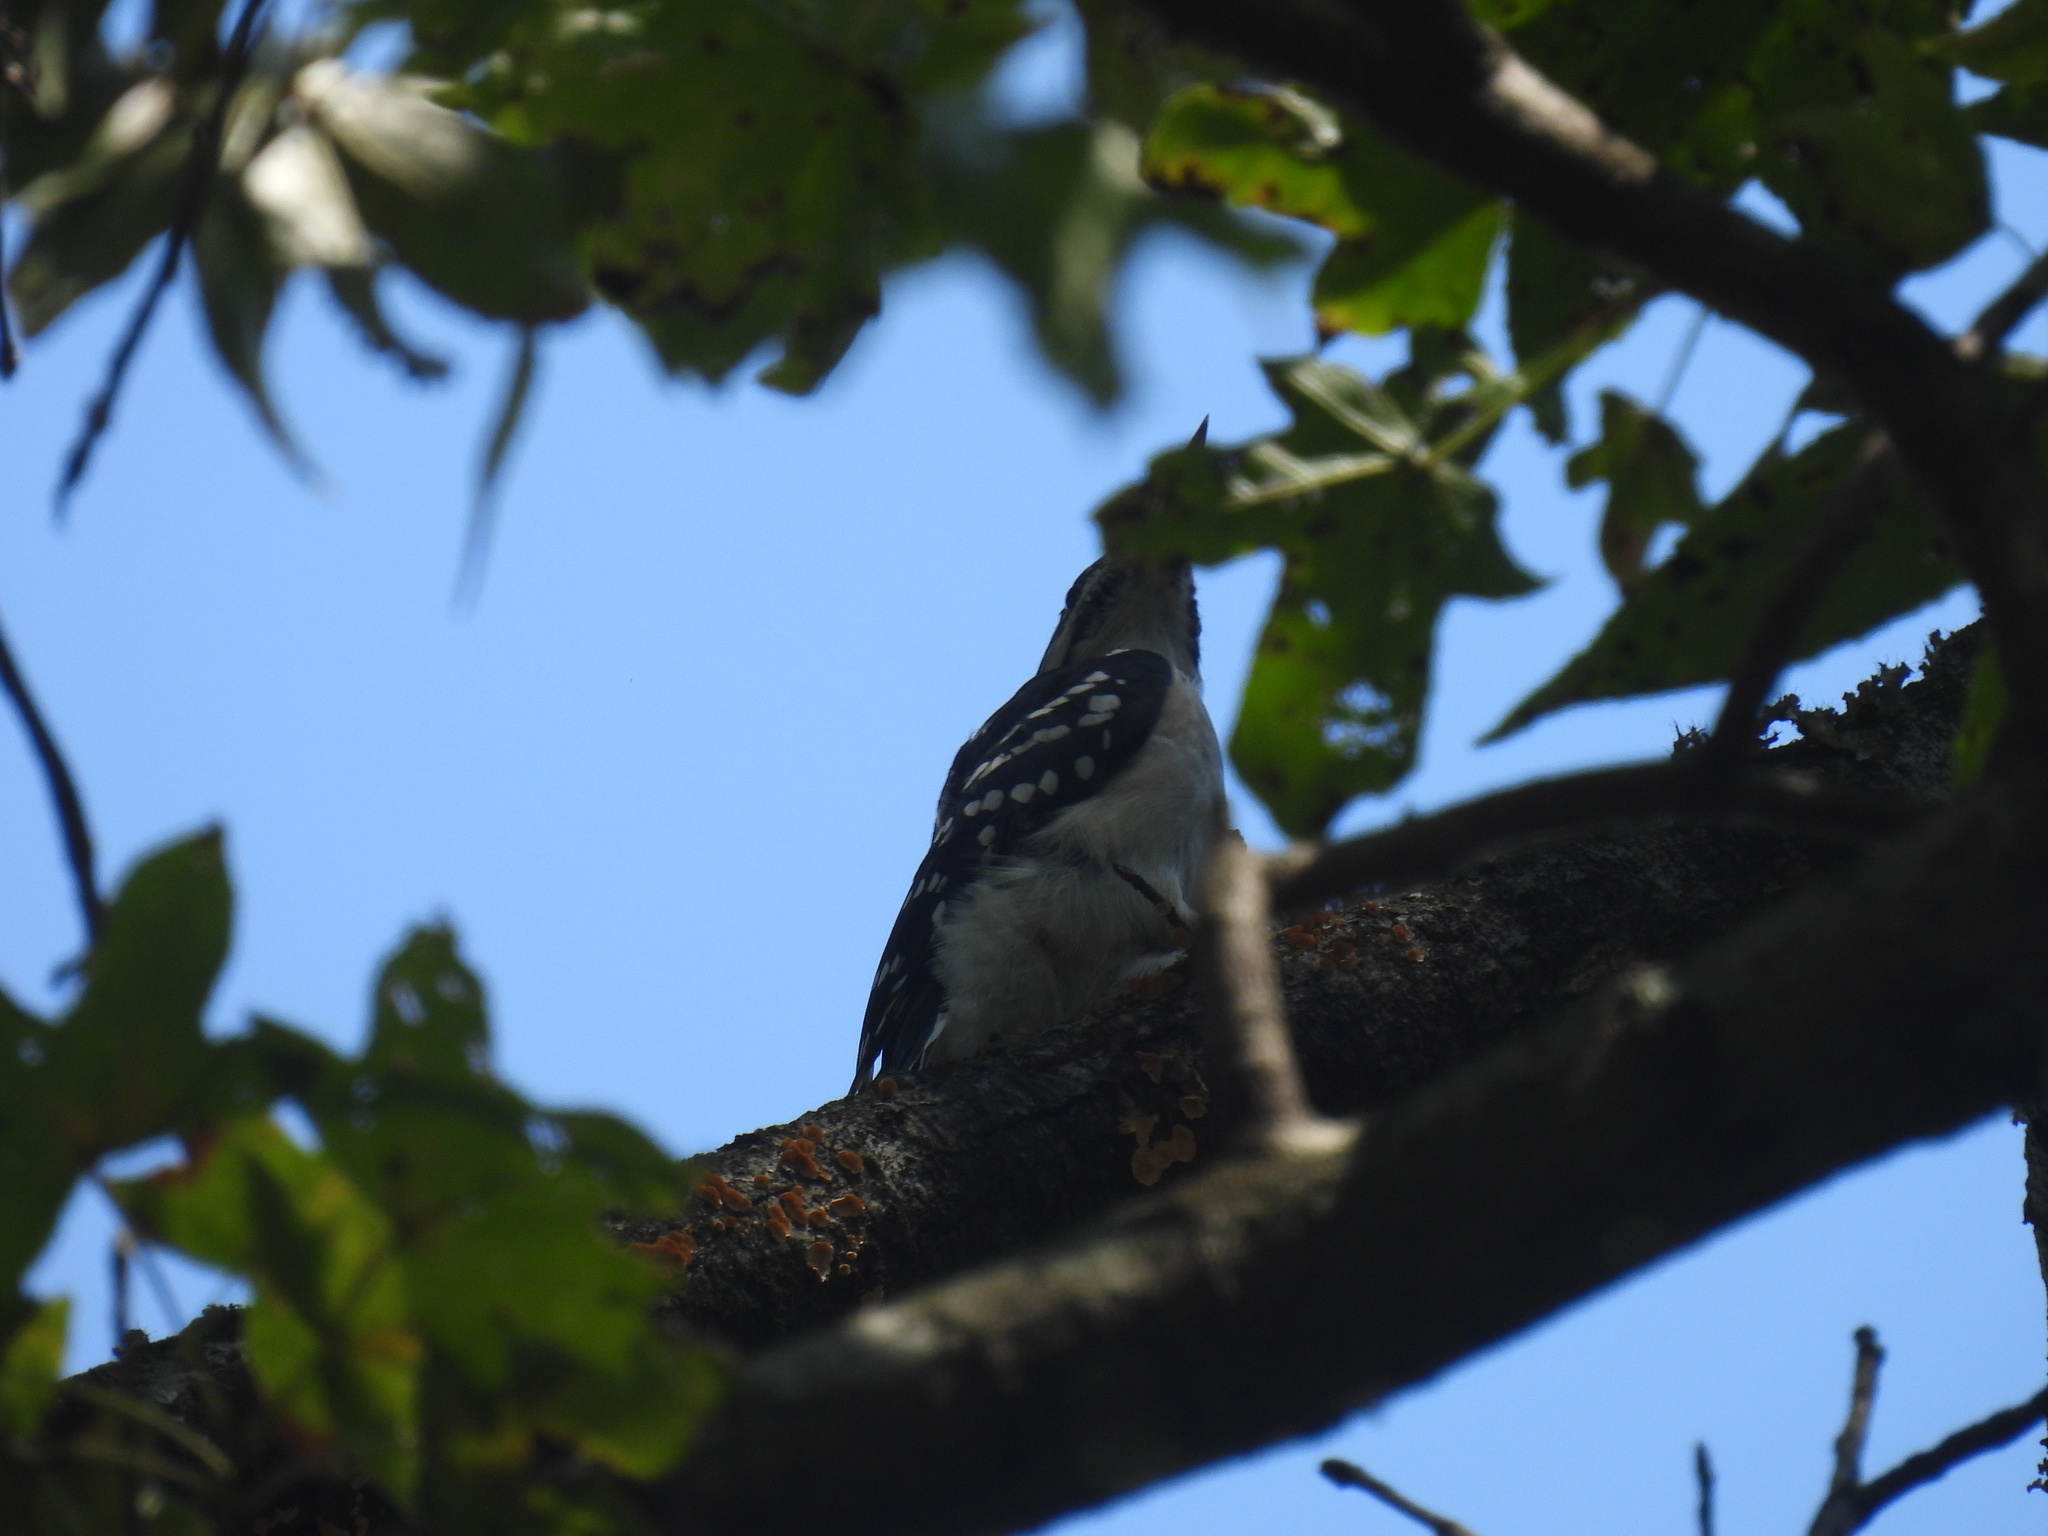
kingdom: Animalia
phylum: Chordata
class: Aves
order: Piciformes
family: Picidae
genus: Leuconotopicus
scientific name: Leuconotopicus villosus
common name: Hairy woodpecker
